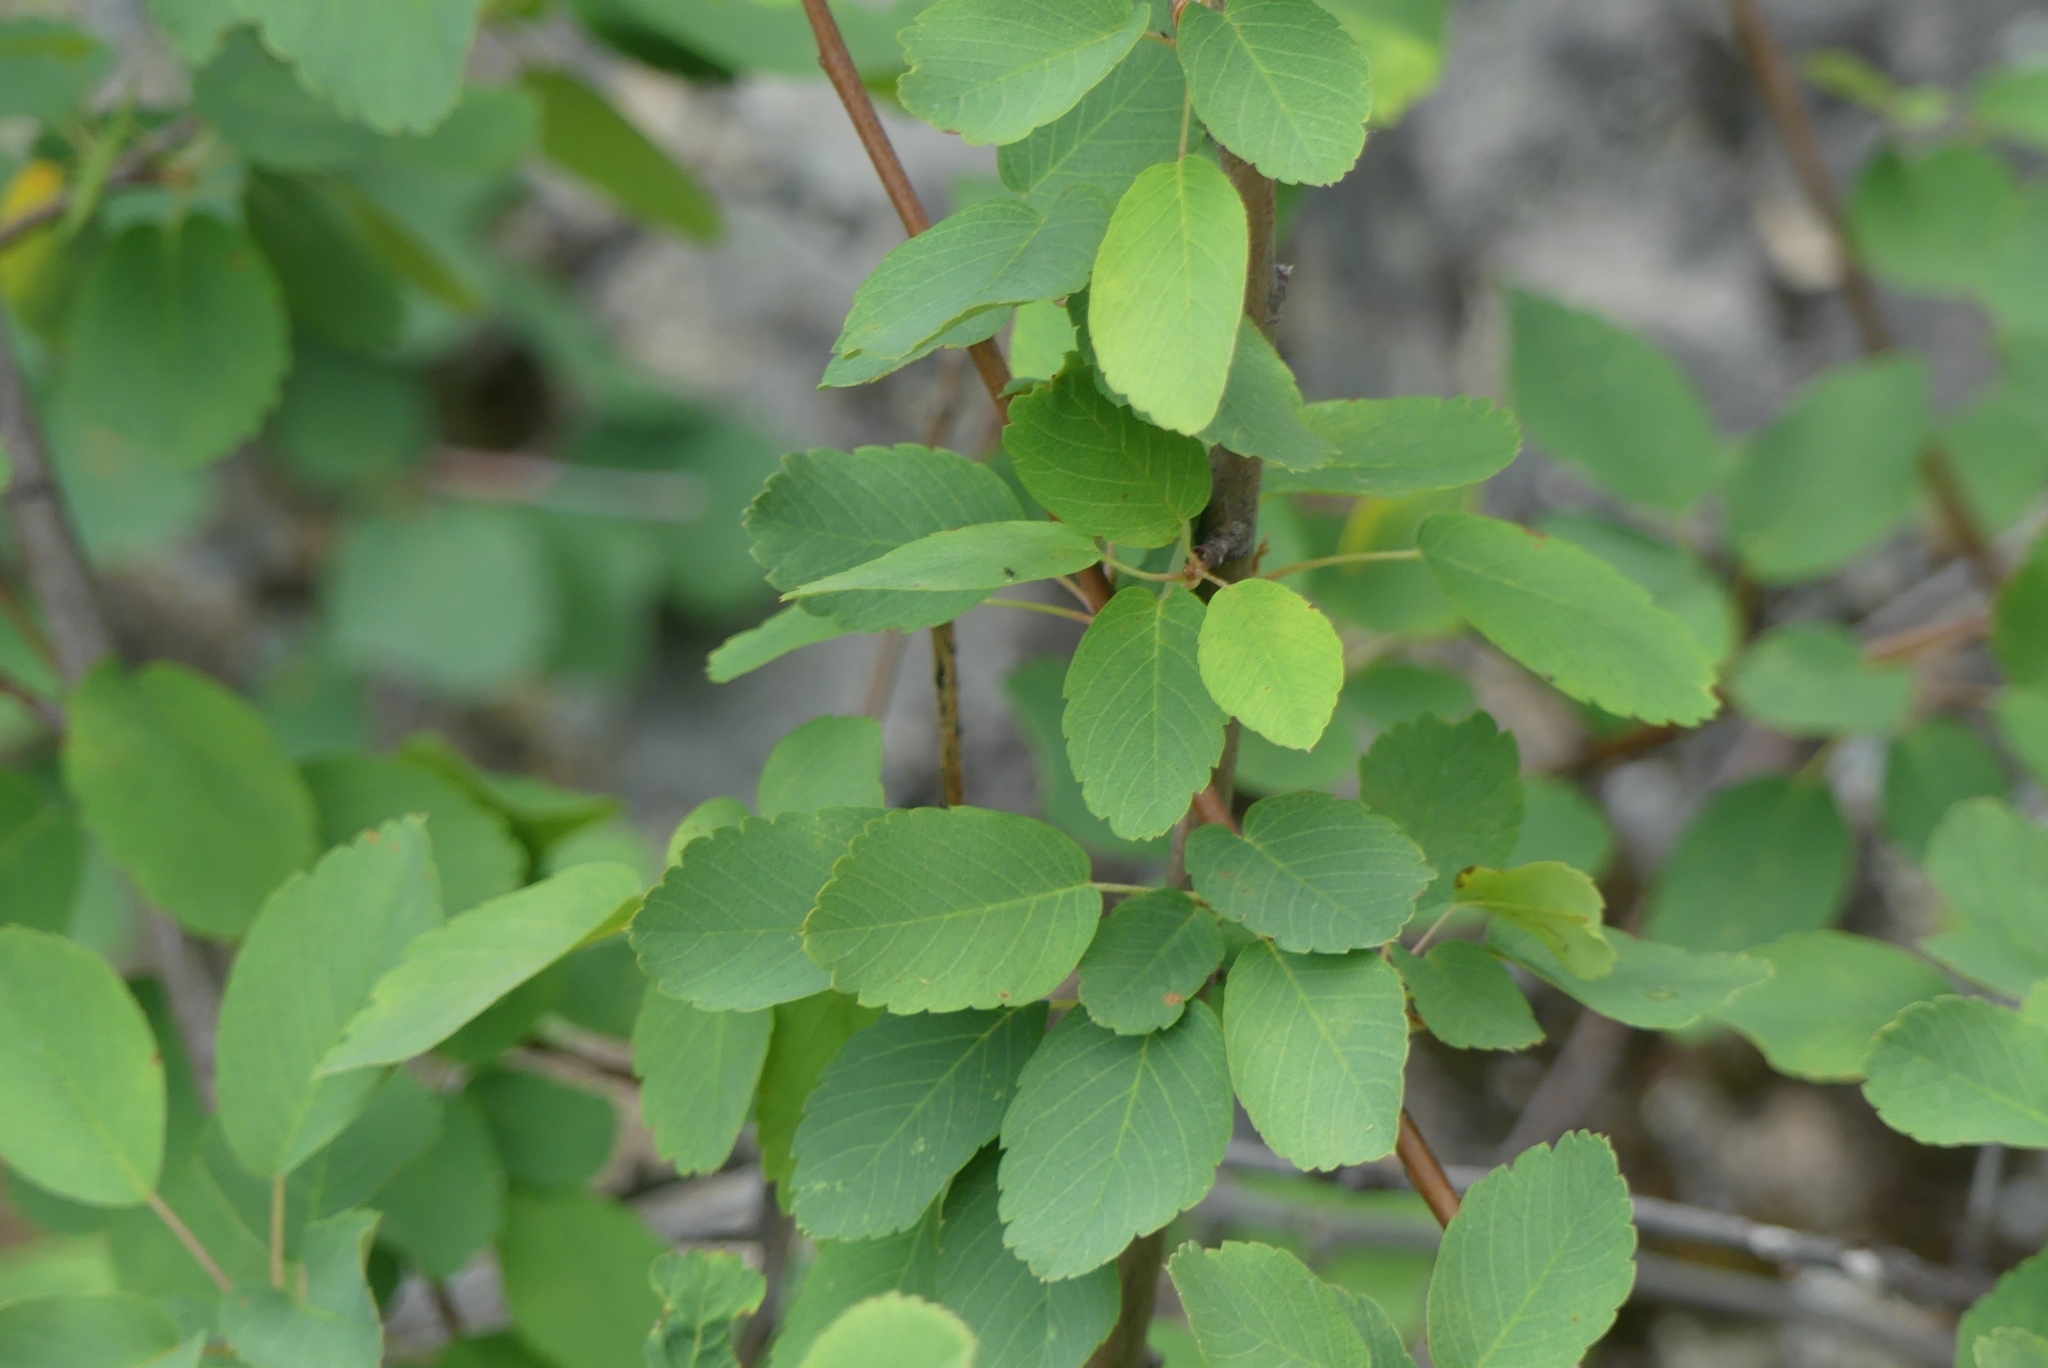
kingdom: Plantae
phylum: Tracheophyta
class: Magnoliopsida
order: Rosales
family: Rosaceae
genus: Amelanchier
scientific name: Amelanchier alnifolia
